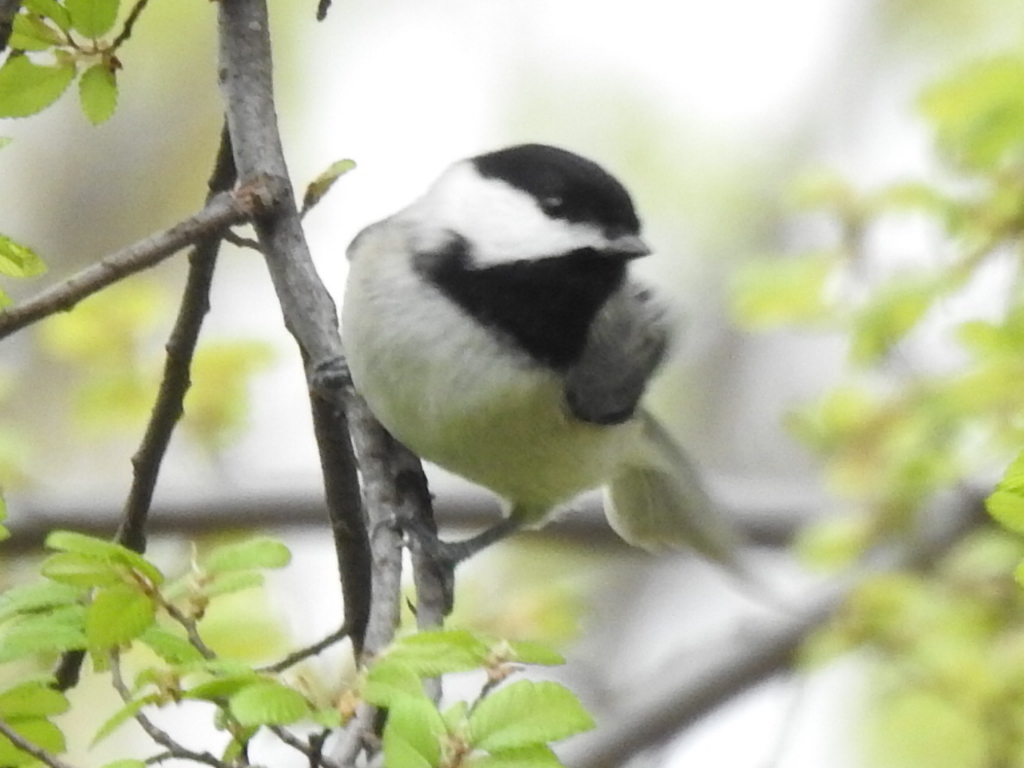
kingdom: Animalia
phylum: Chordata
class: Aves
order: Passeriformes
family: Paridae
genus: Poecile
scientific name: Poecile carolinensis
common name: Carolina chickadee
